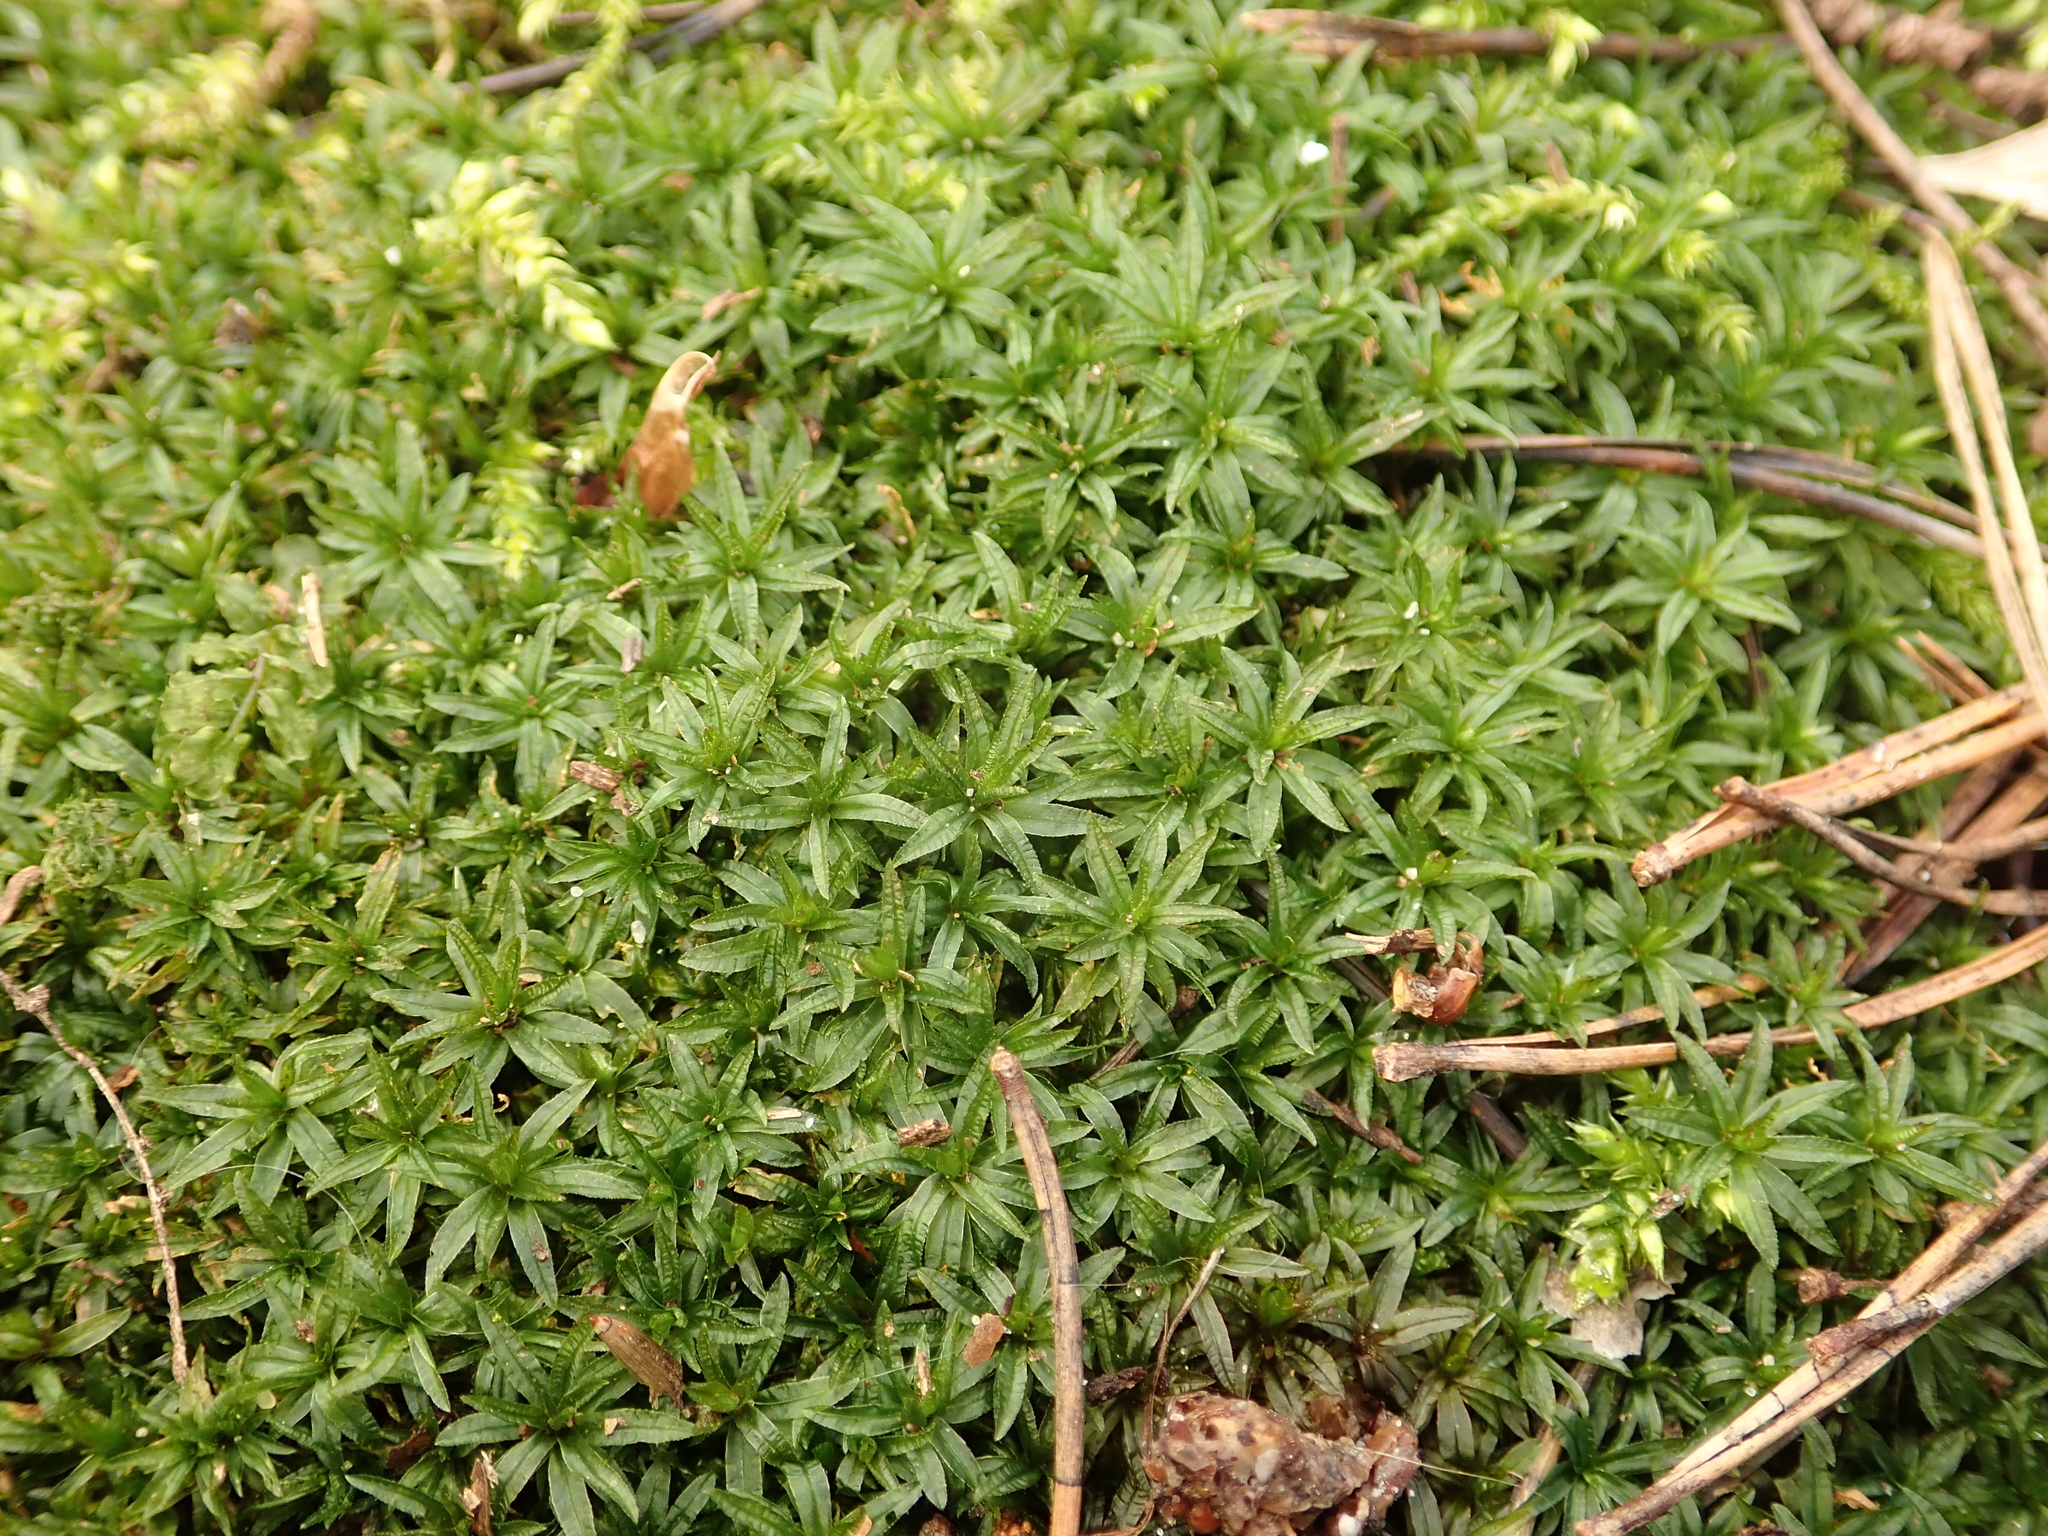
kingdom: Plantae
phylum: Bryophyta
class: Polytrichopsida
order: Polytrichales
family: Polytrichaceae
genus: Atrichum
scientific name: Atrichum undulatum
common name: Common smoothcap
